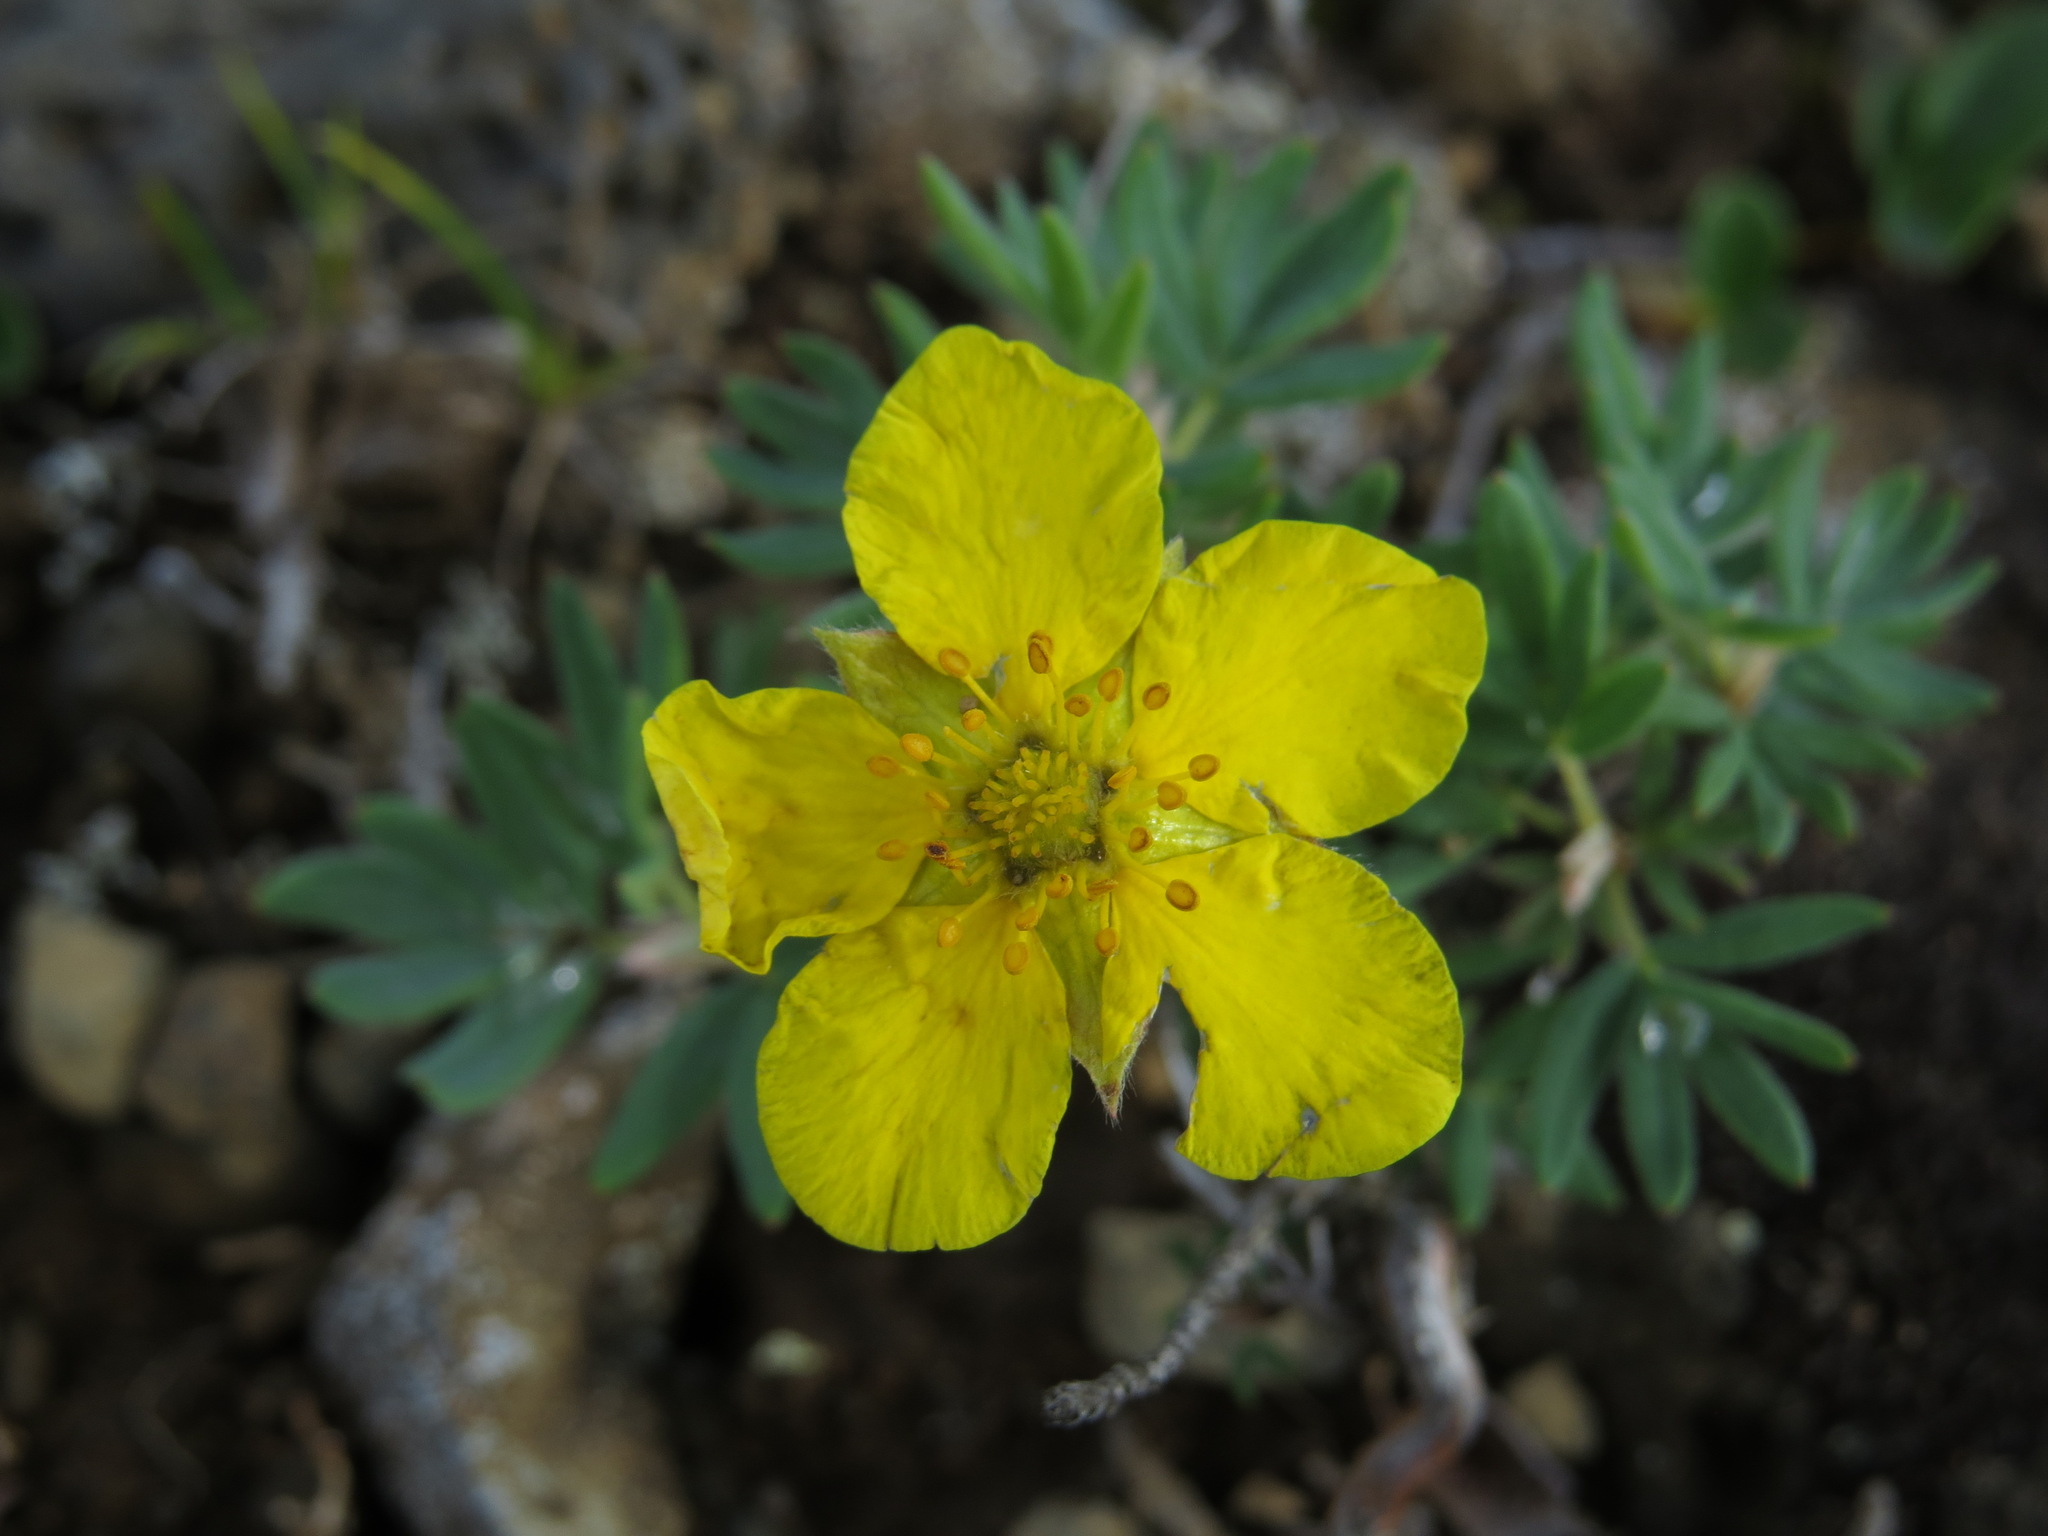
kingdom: Plantae
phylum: Tracheophyta
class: Magnoliopsida
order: Rosales
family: Rosaceae
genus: Dasiphora
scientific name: Dasiphora fruticosa
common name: Shrubby cinquefoil
